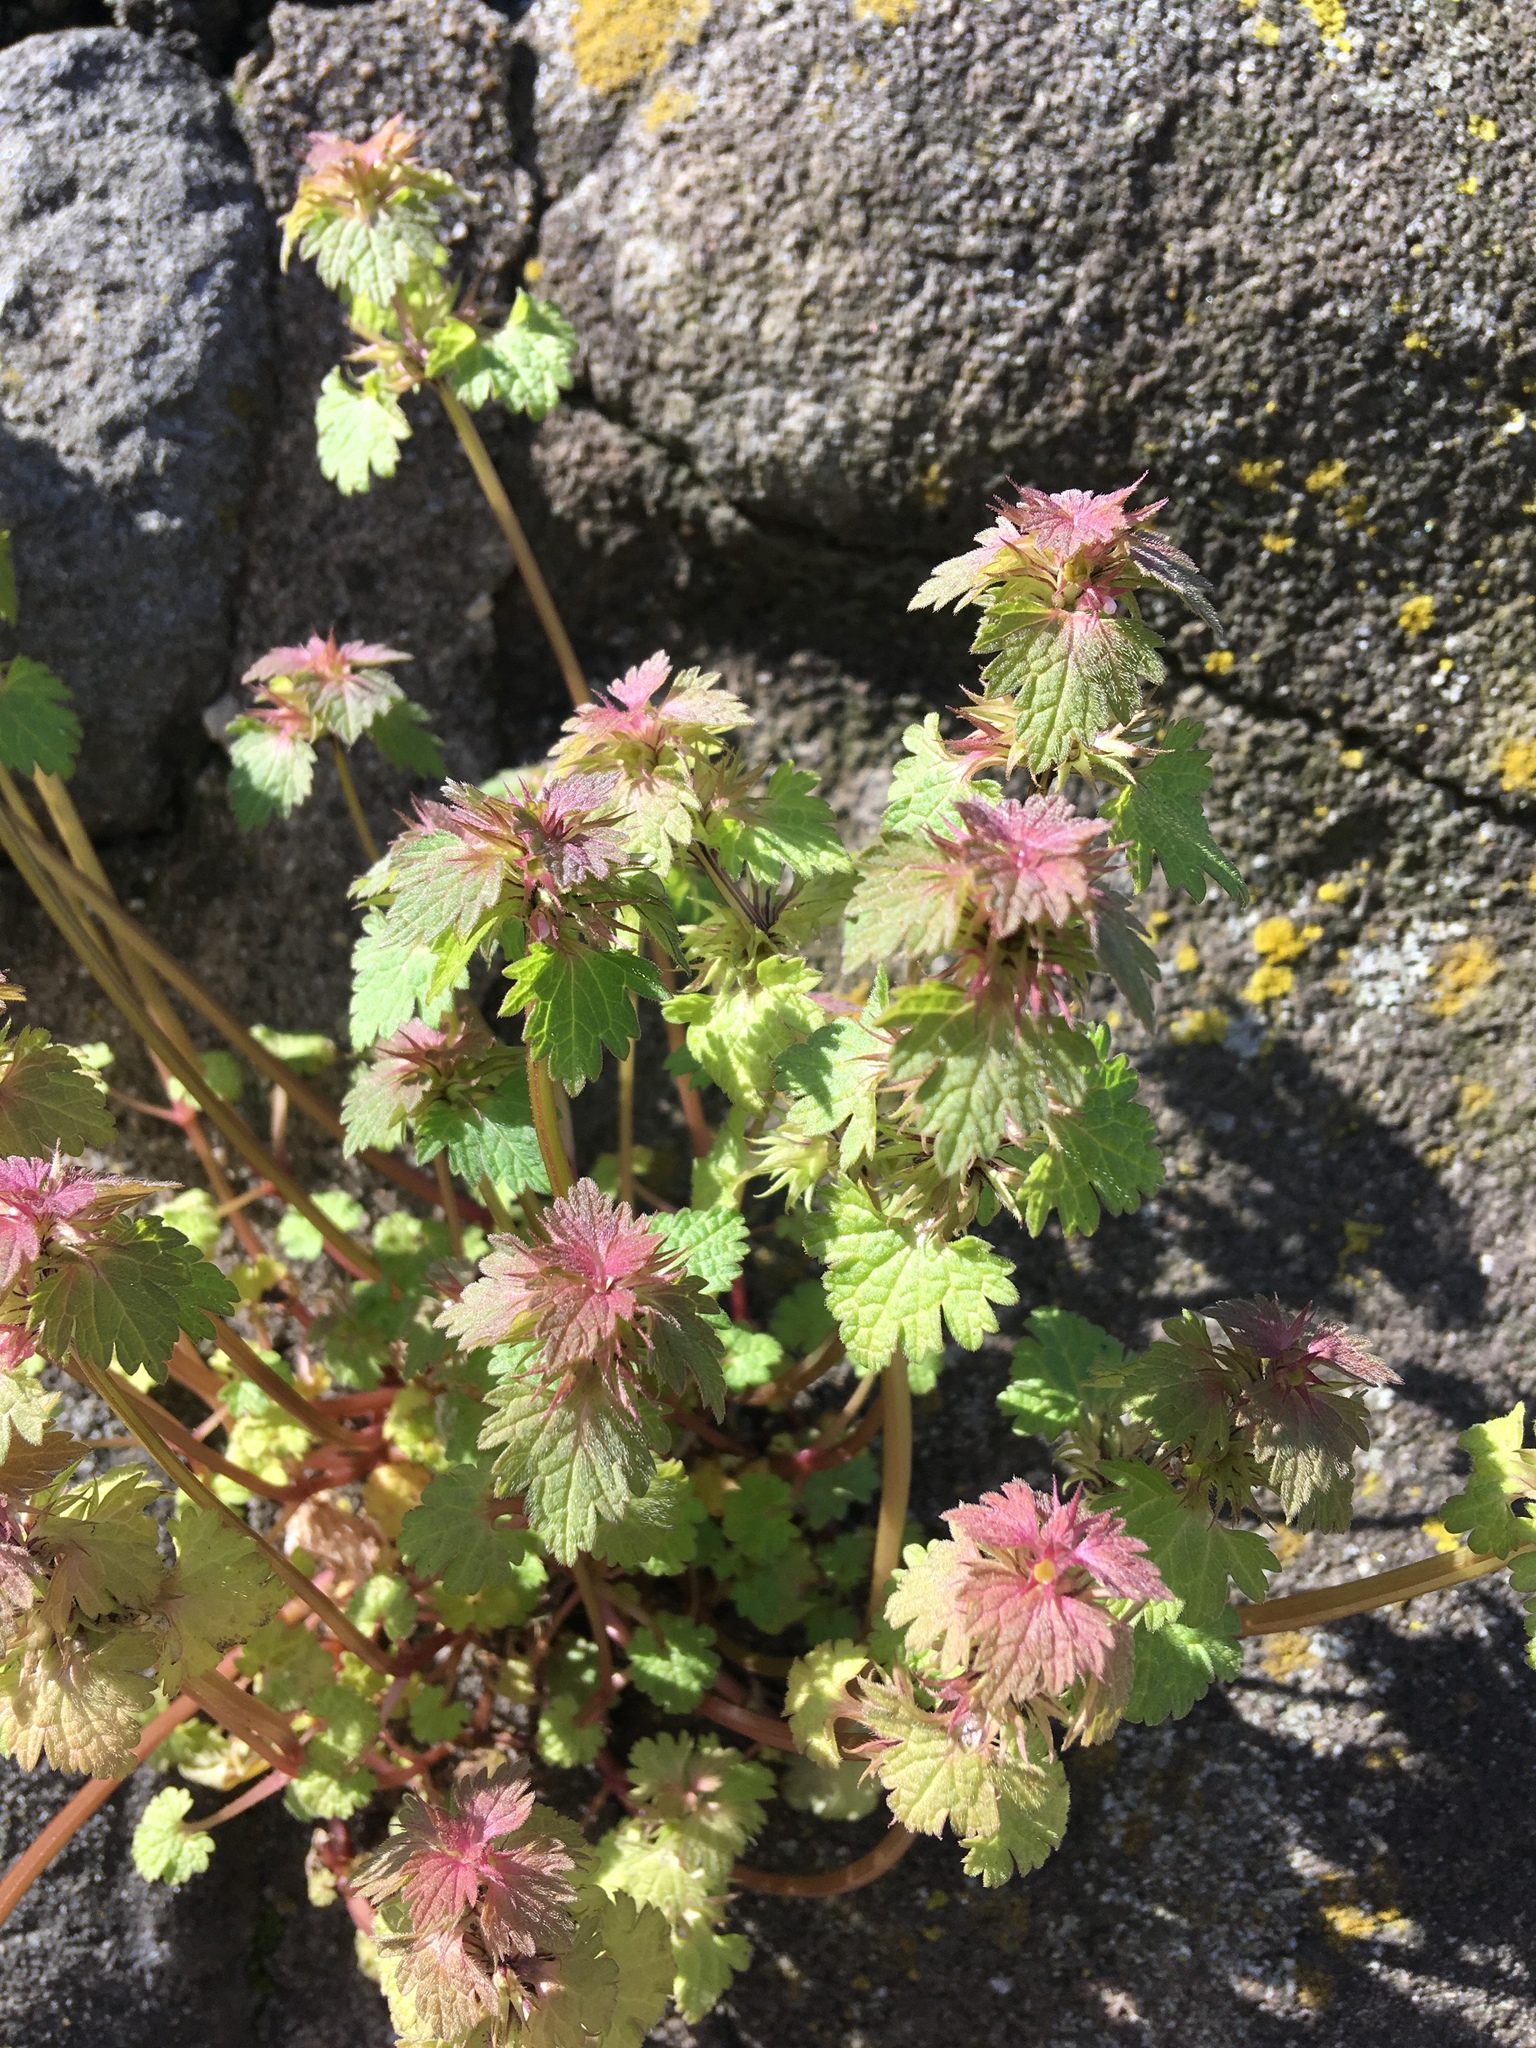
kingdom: Plantae
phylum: Tracheophyta
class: Magnoliopsida
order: Lamiales
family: Lamiaceae
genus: Lamium
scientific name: Lamium hybridum
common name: Cut-leaved dead-nettle
